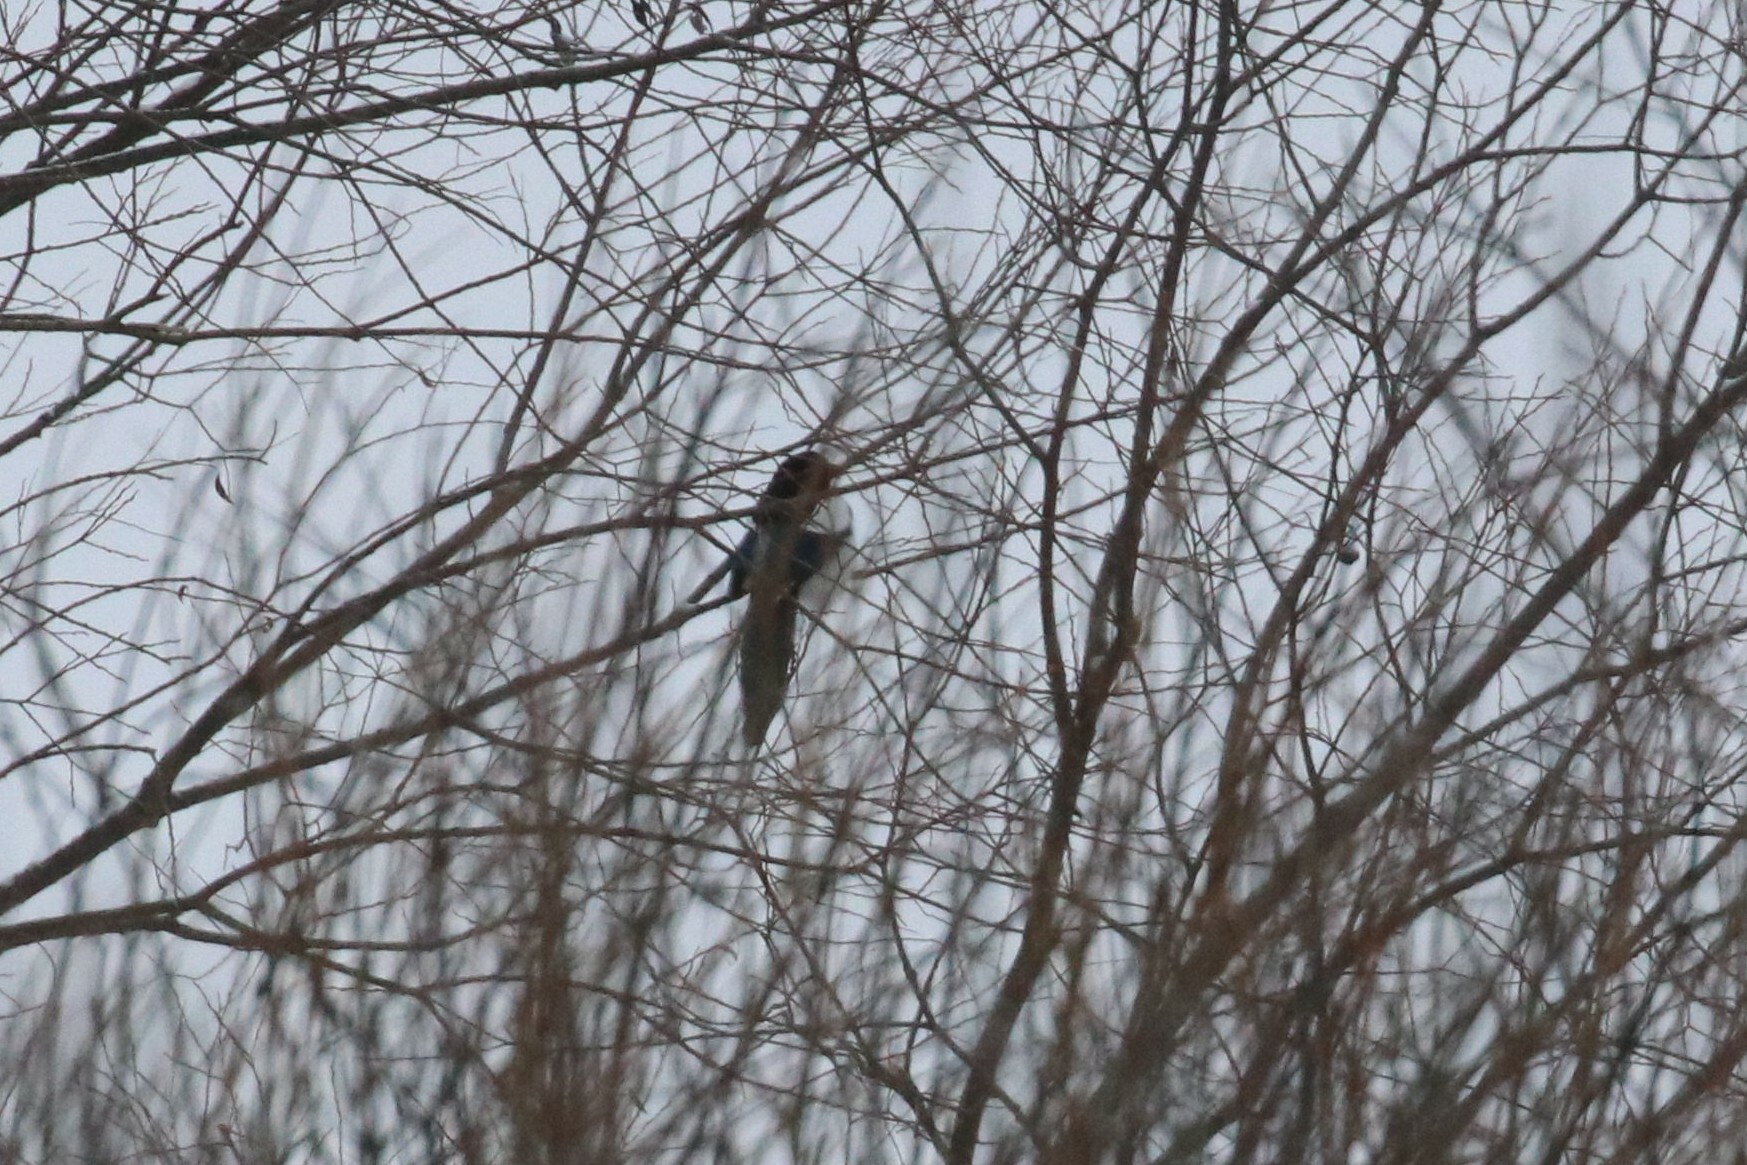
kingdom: Animalia
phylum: Chordata
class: Aves
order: Passeriformes
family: Corvidae
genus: Pica
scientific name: Pica pica
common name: Eurasian magpie
